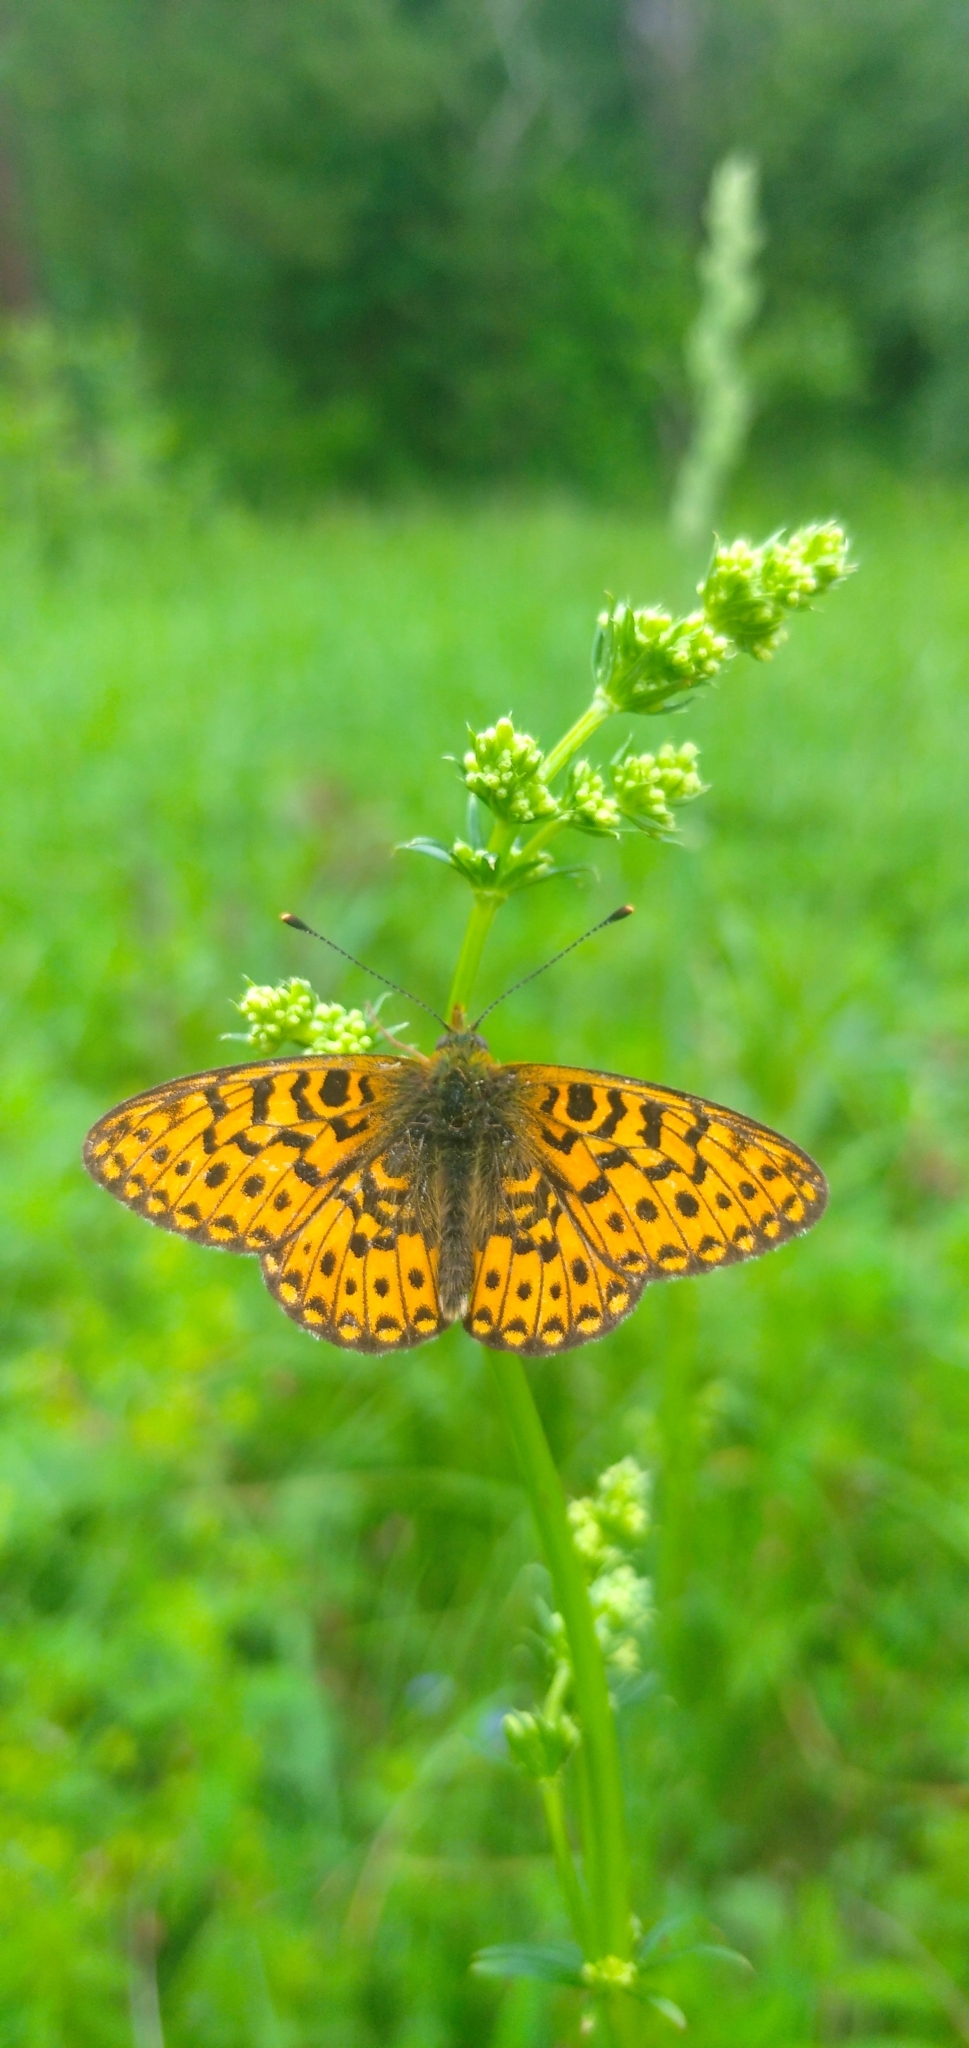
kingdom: Animalia
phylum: Arthropoda
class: Insecta
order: Lepidoptera
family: Nymphalidae
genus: Clossiana
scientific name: Clossiana euphrosyne
